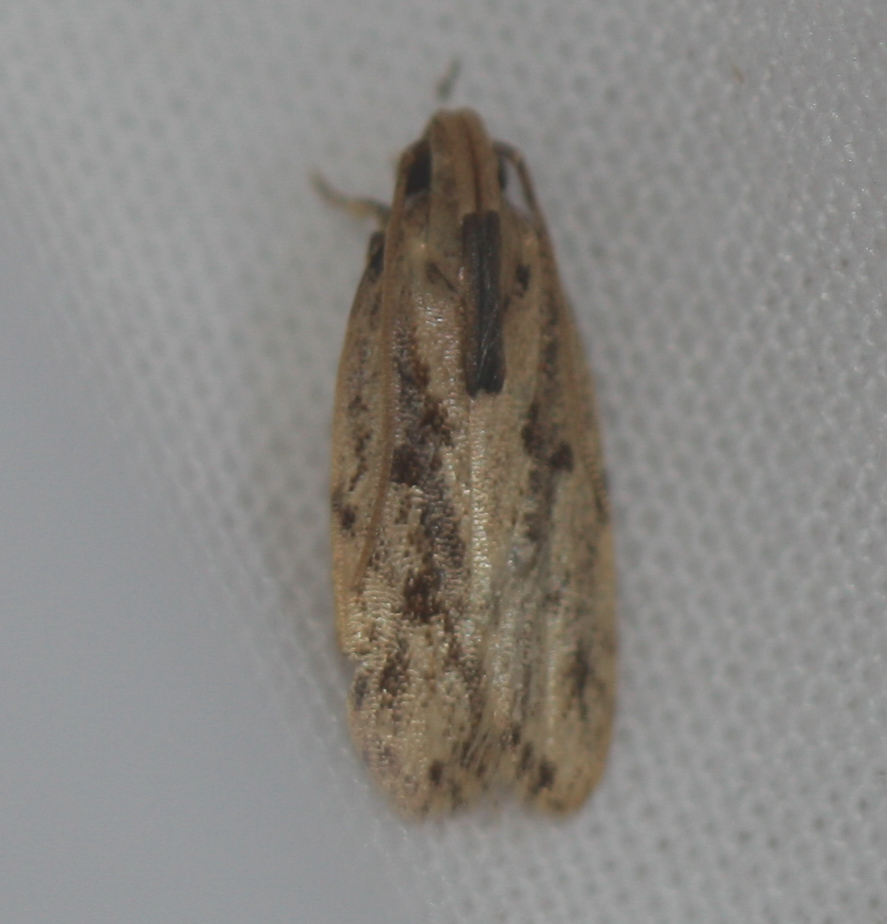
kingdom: Animalia
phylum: Arthropoda
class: Insecta
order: Lepidoptera
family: Autostichidae
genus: Stoeberhinus
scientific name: Stoeberhinus testaceus
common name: Moth
